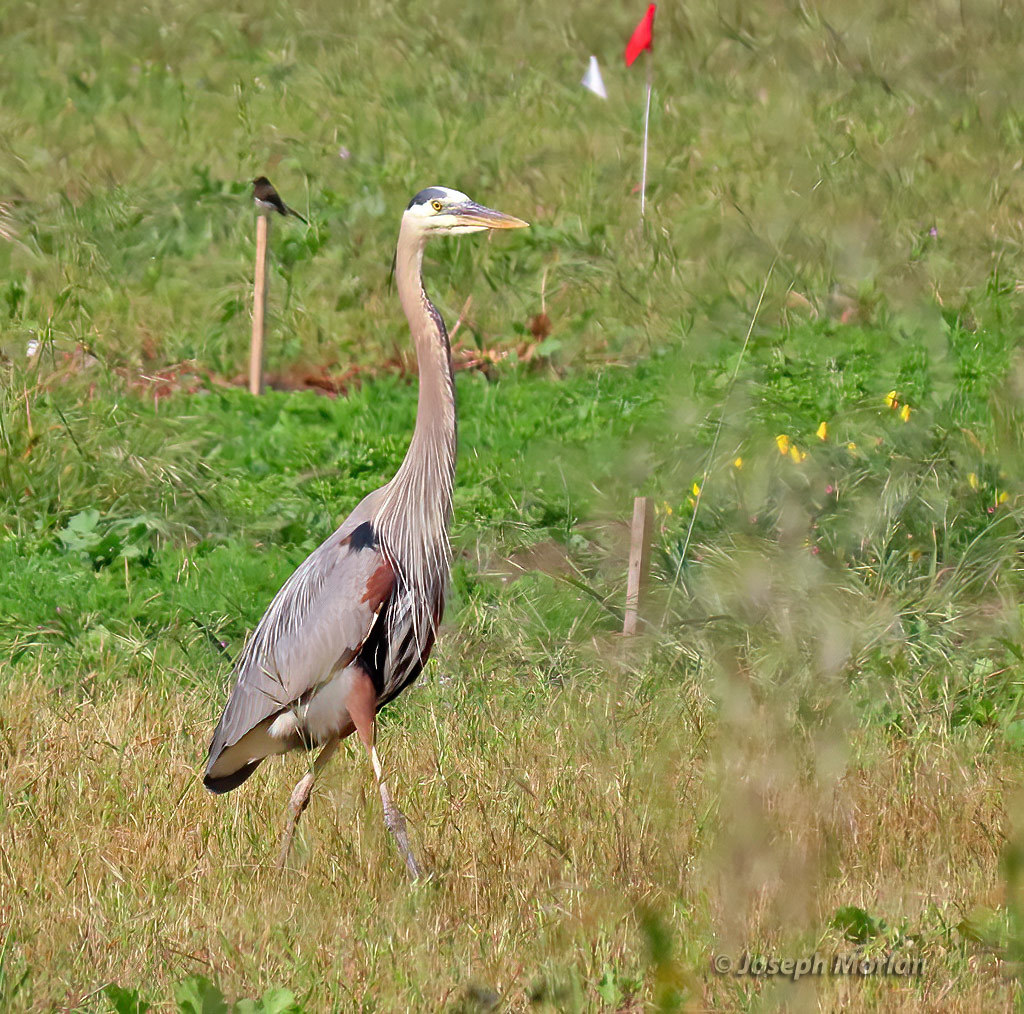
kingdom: Animalia
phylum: Chordata
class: Aves
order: Pelecaniformes
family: Ardeidae
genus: Ardea
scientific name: Ardea herodias
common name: Great blue heron
